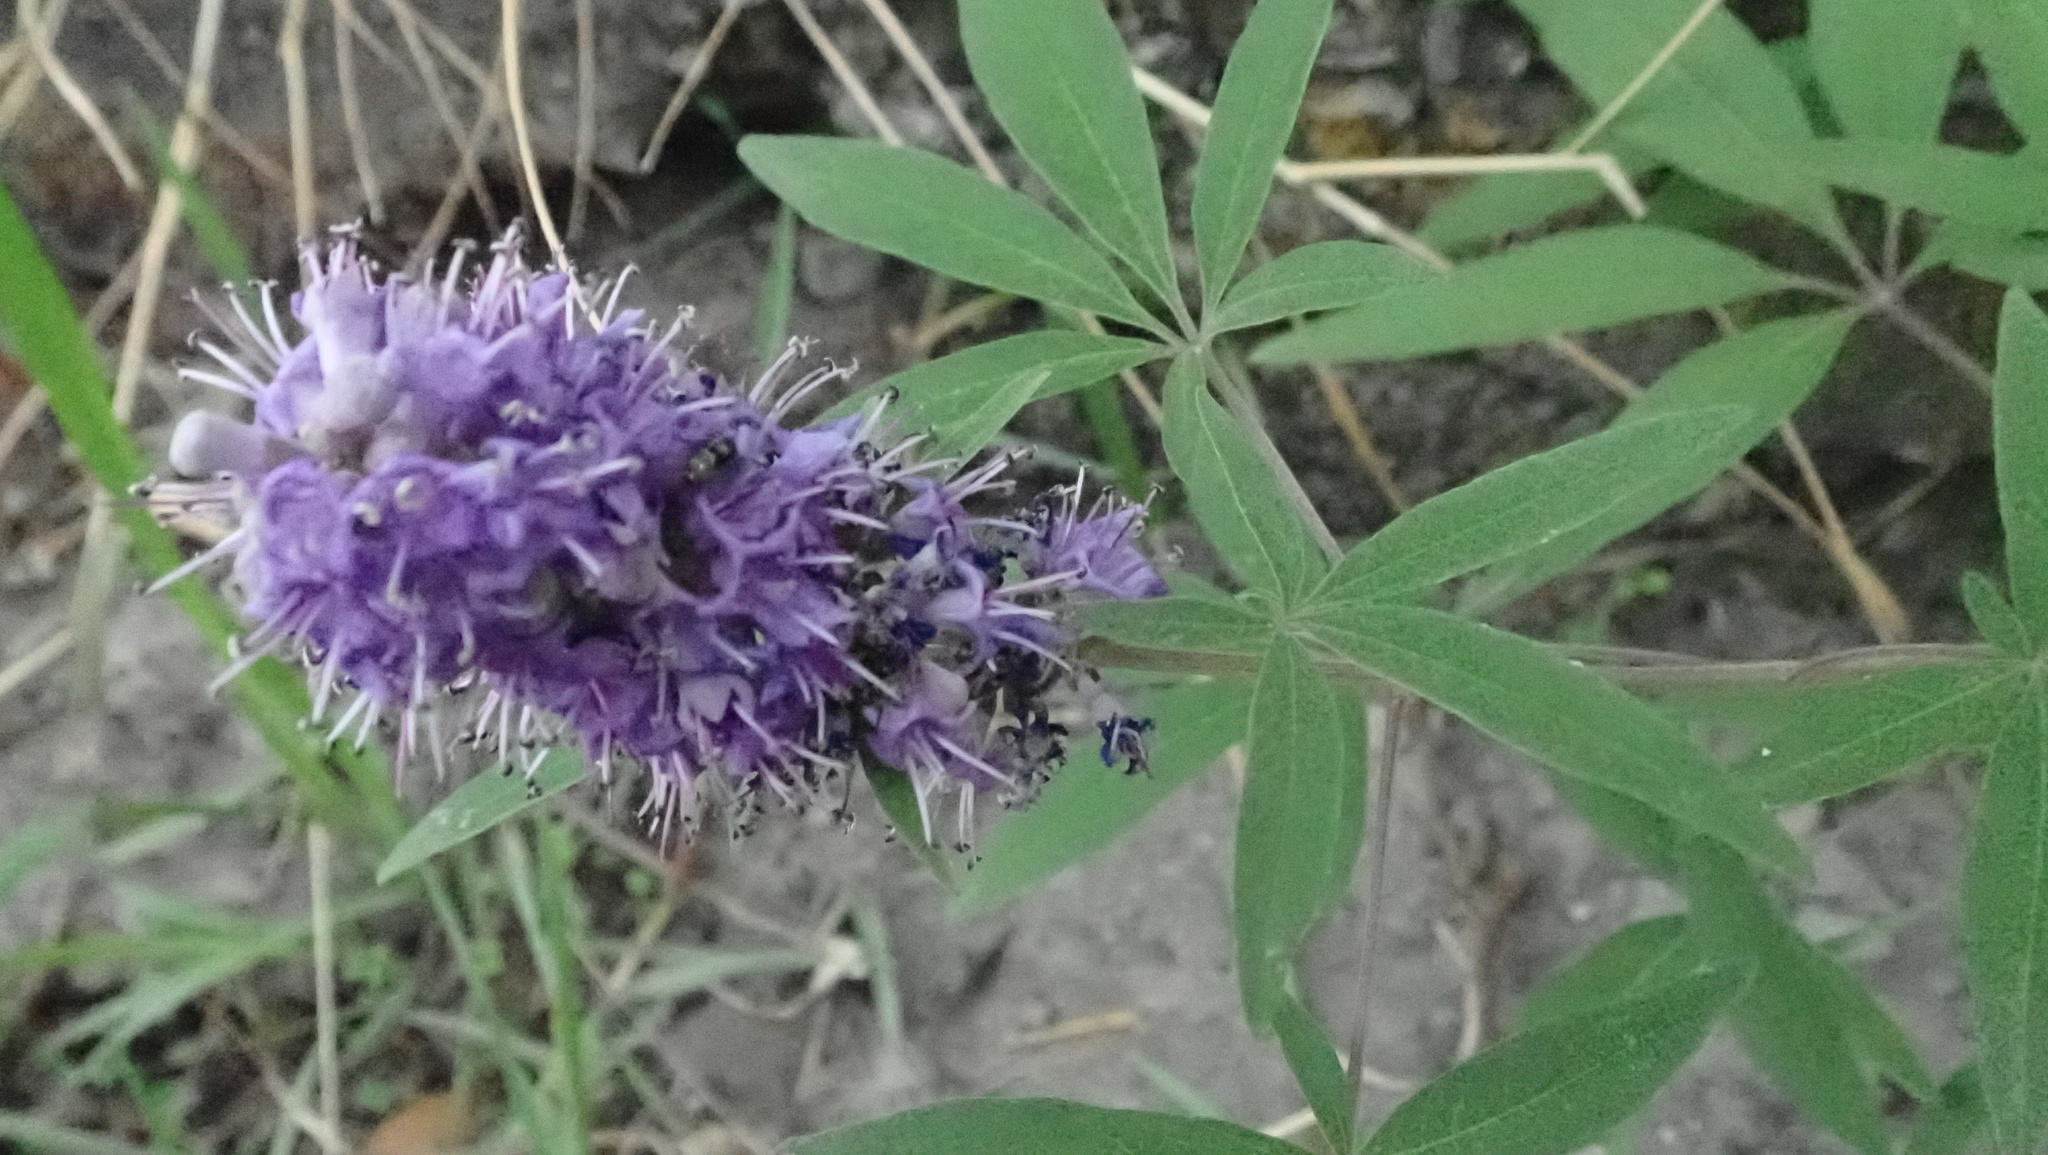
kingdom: Plantae
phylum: Tracheophyta
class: Magnoliopsida
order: Lamiales
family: Lamiaceae
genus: Vitex
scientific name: Vitex agnus-castus
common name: Chasteberry
